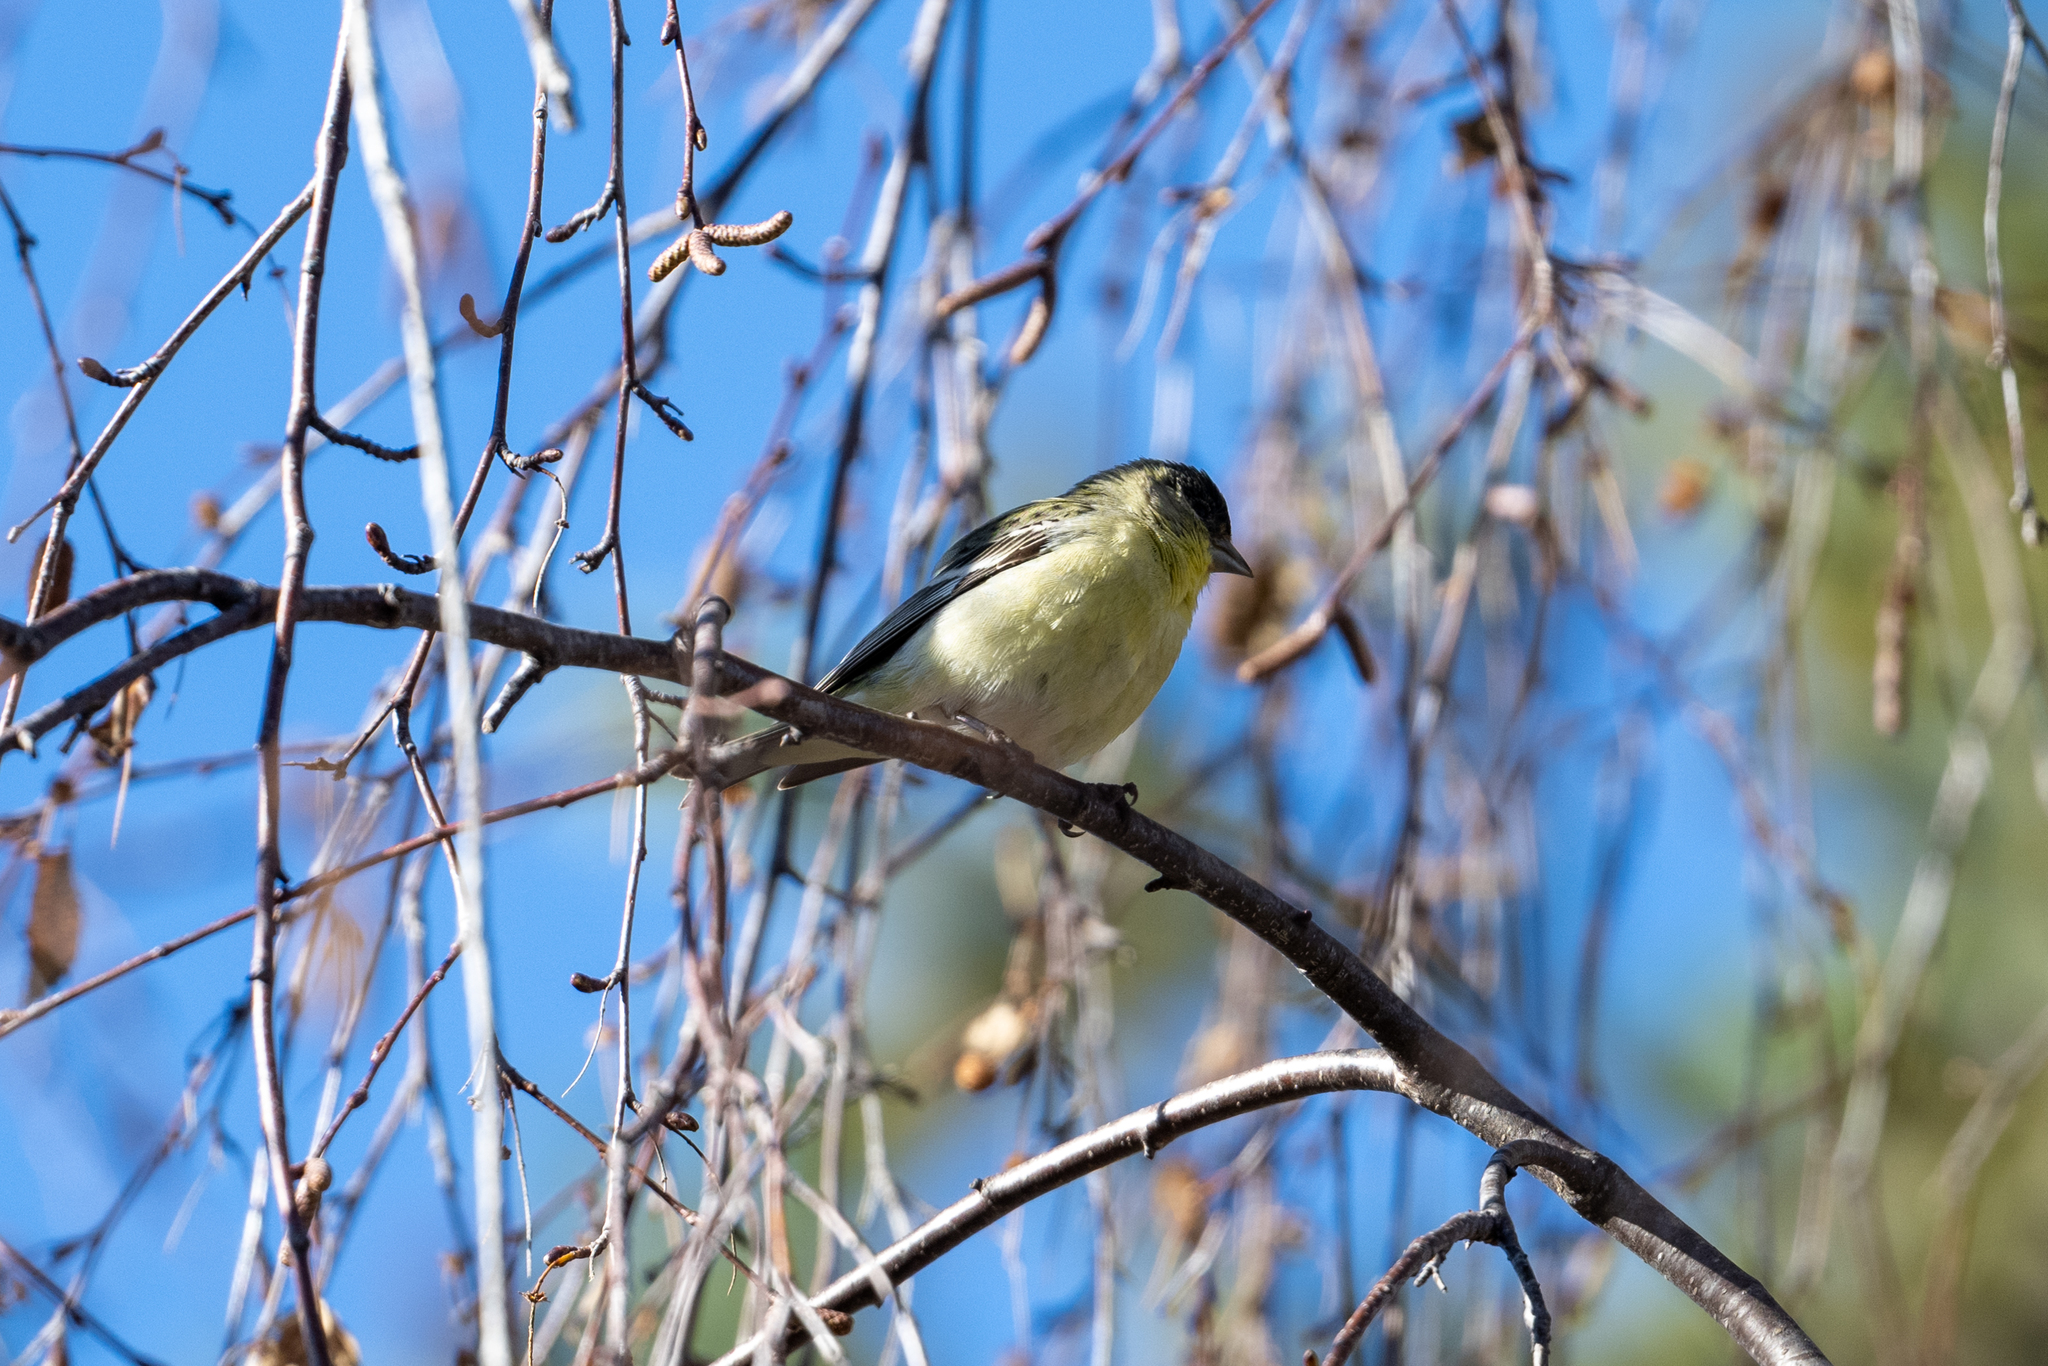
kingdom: Animalia
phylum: Chordata
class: Aves
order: Passeriformes
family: Fringillidae
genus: Spinus
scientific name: Spinus psaltria
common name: Lesser goldfinch
